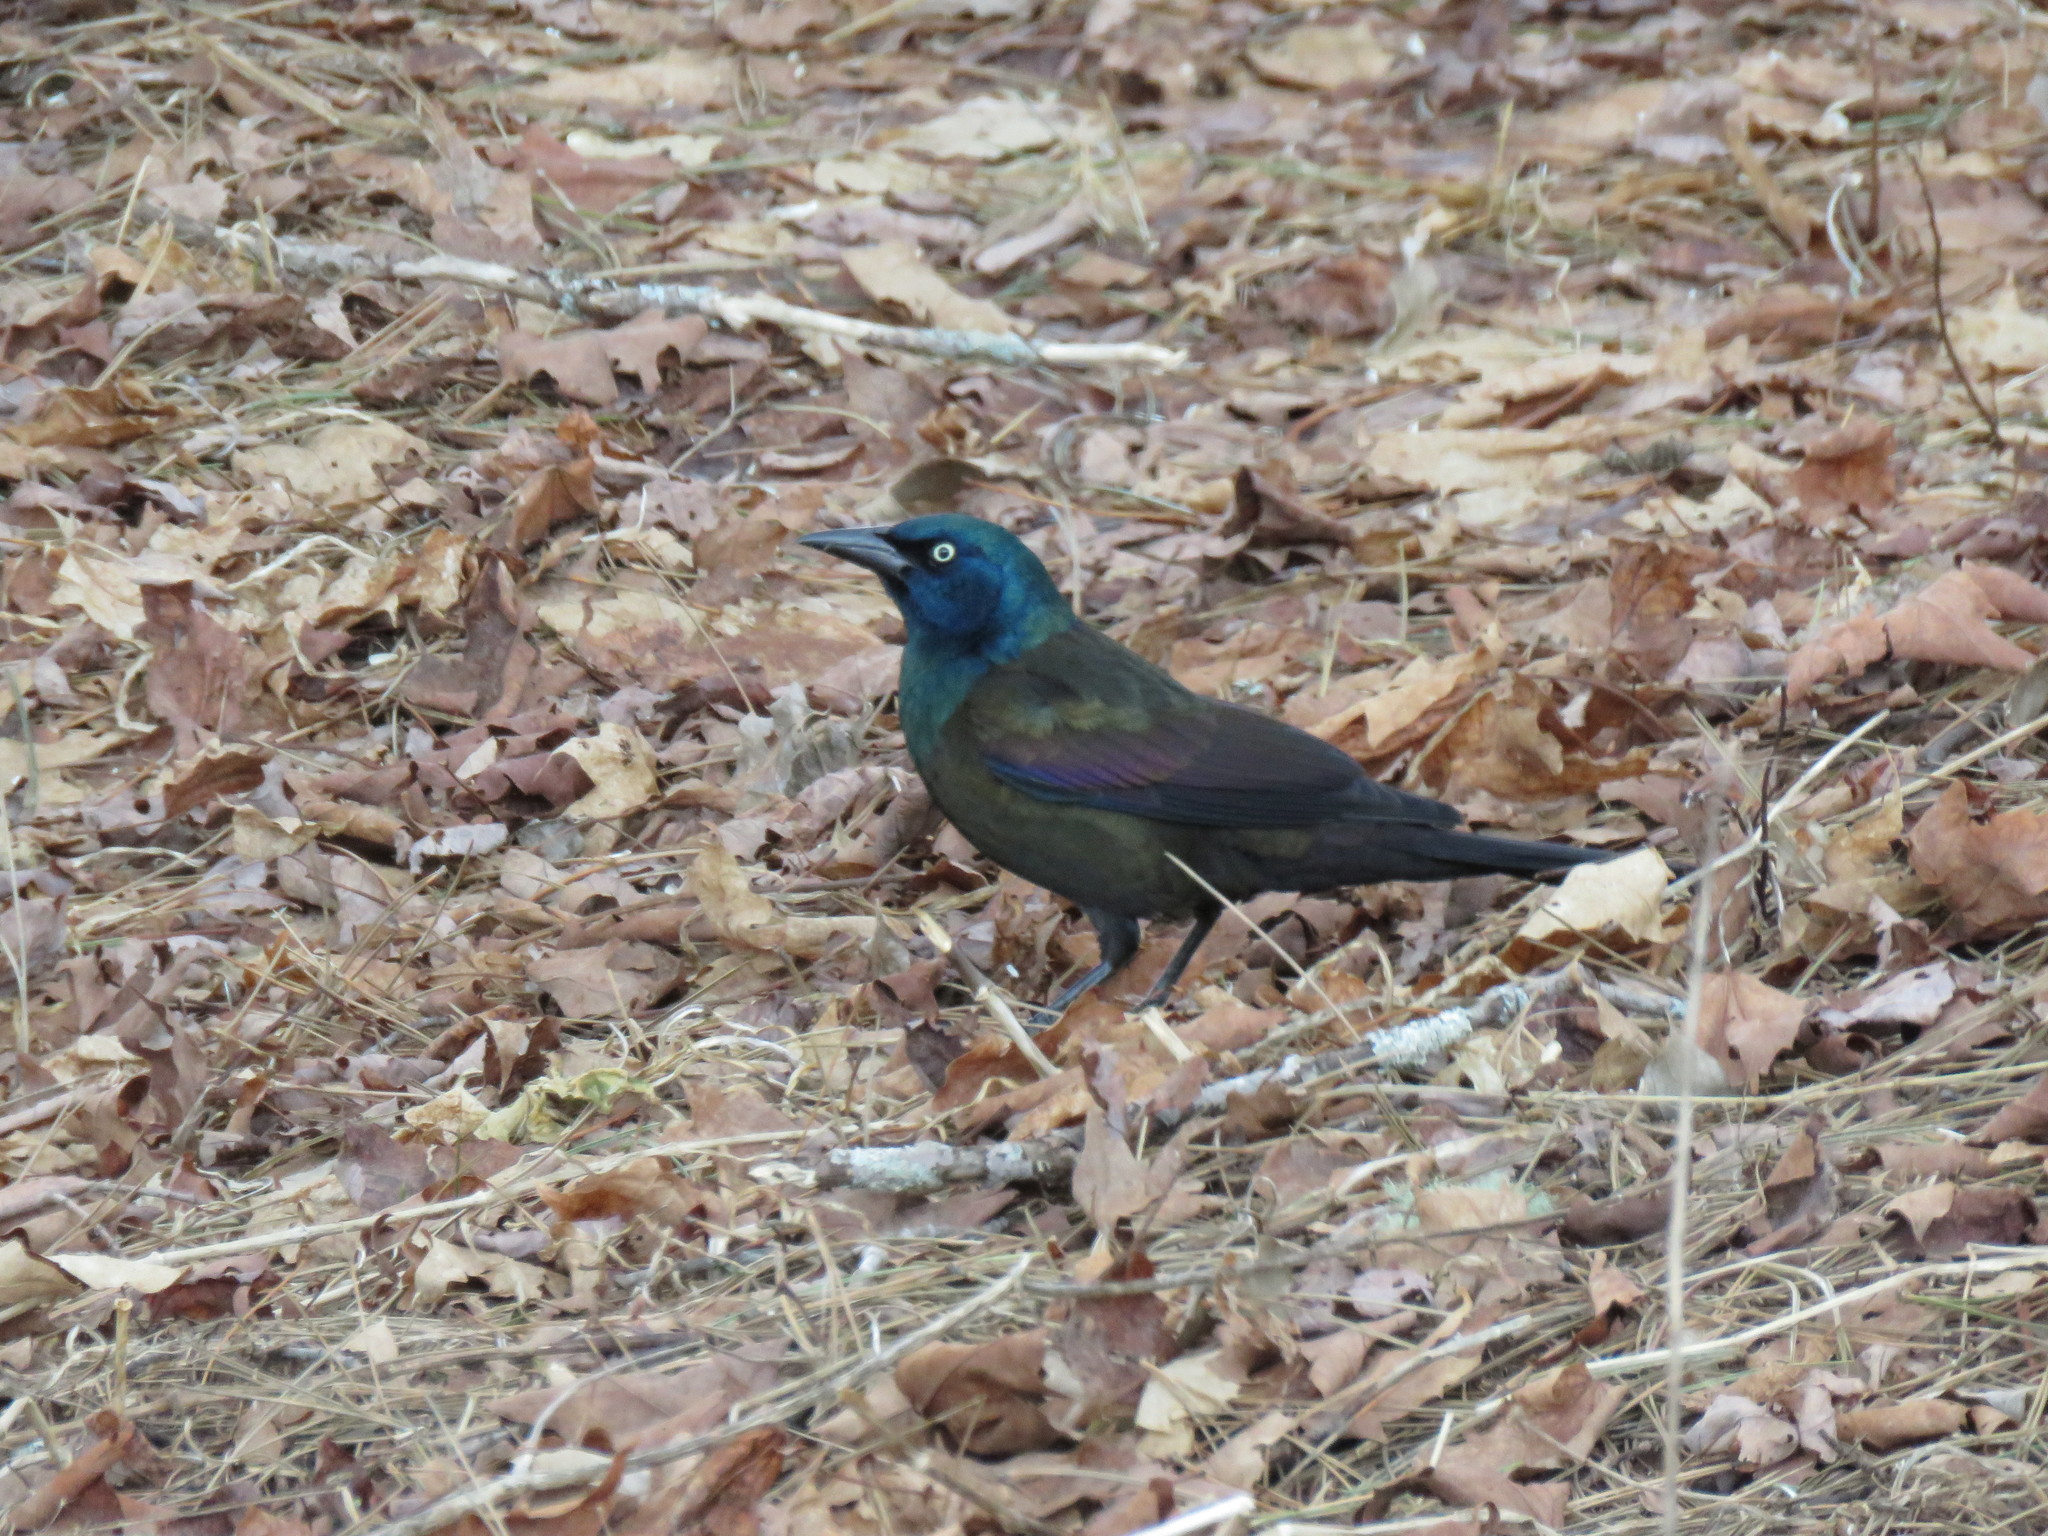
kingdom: Animalia
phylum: Chordata
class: Aves
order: Passeriformes
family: Icteridae
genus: Quiscalus
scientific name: Quiscalus quiscula
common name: Common grackle
